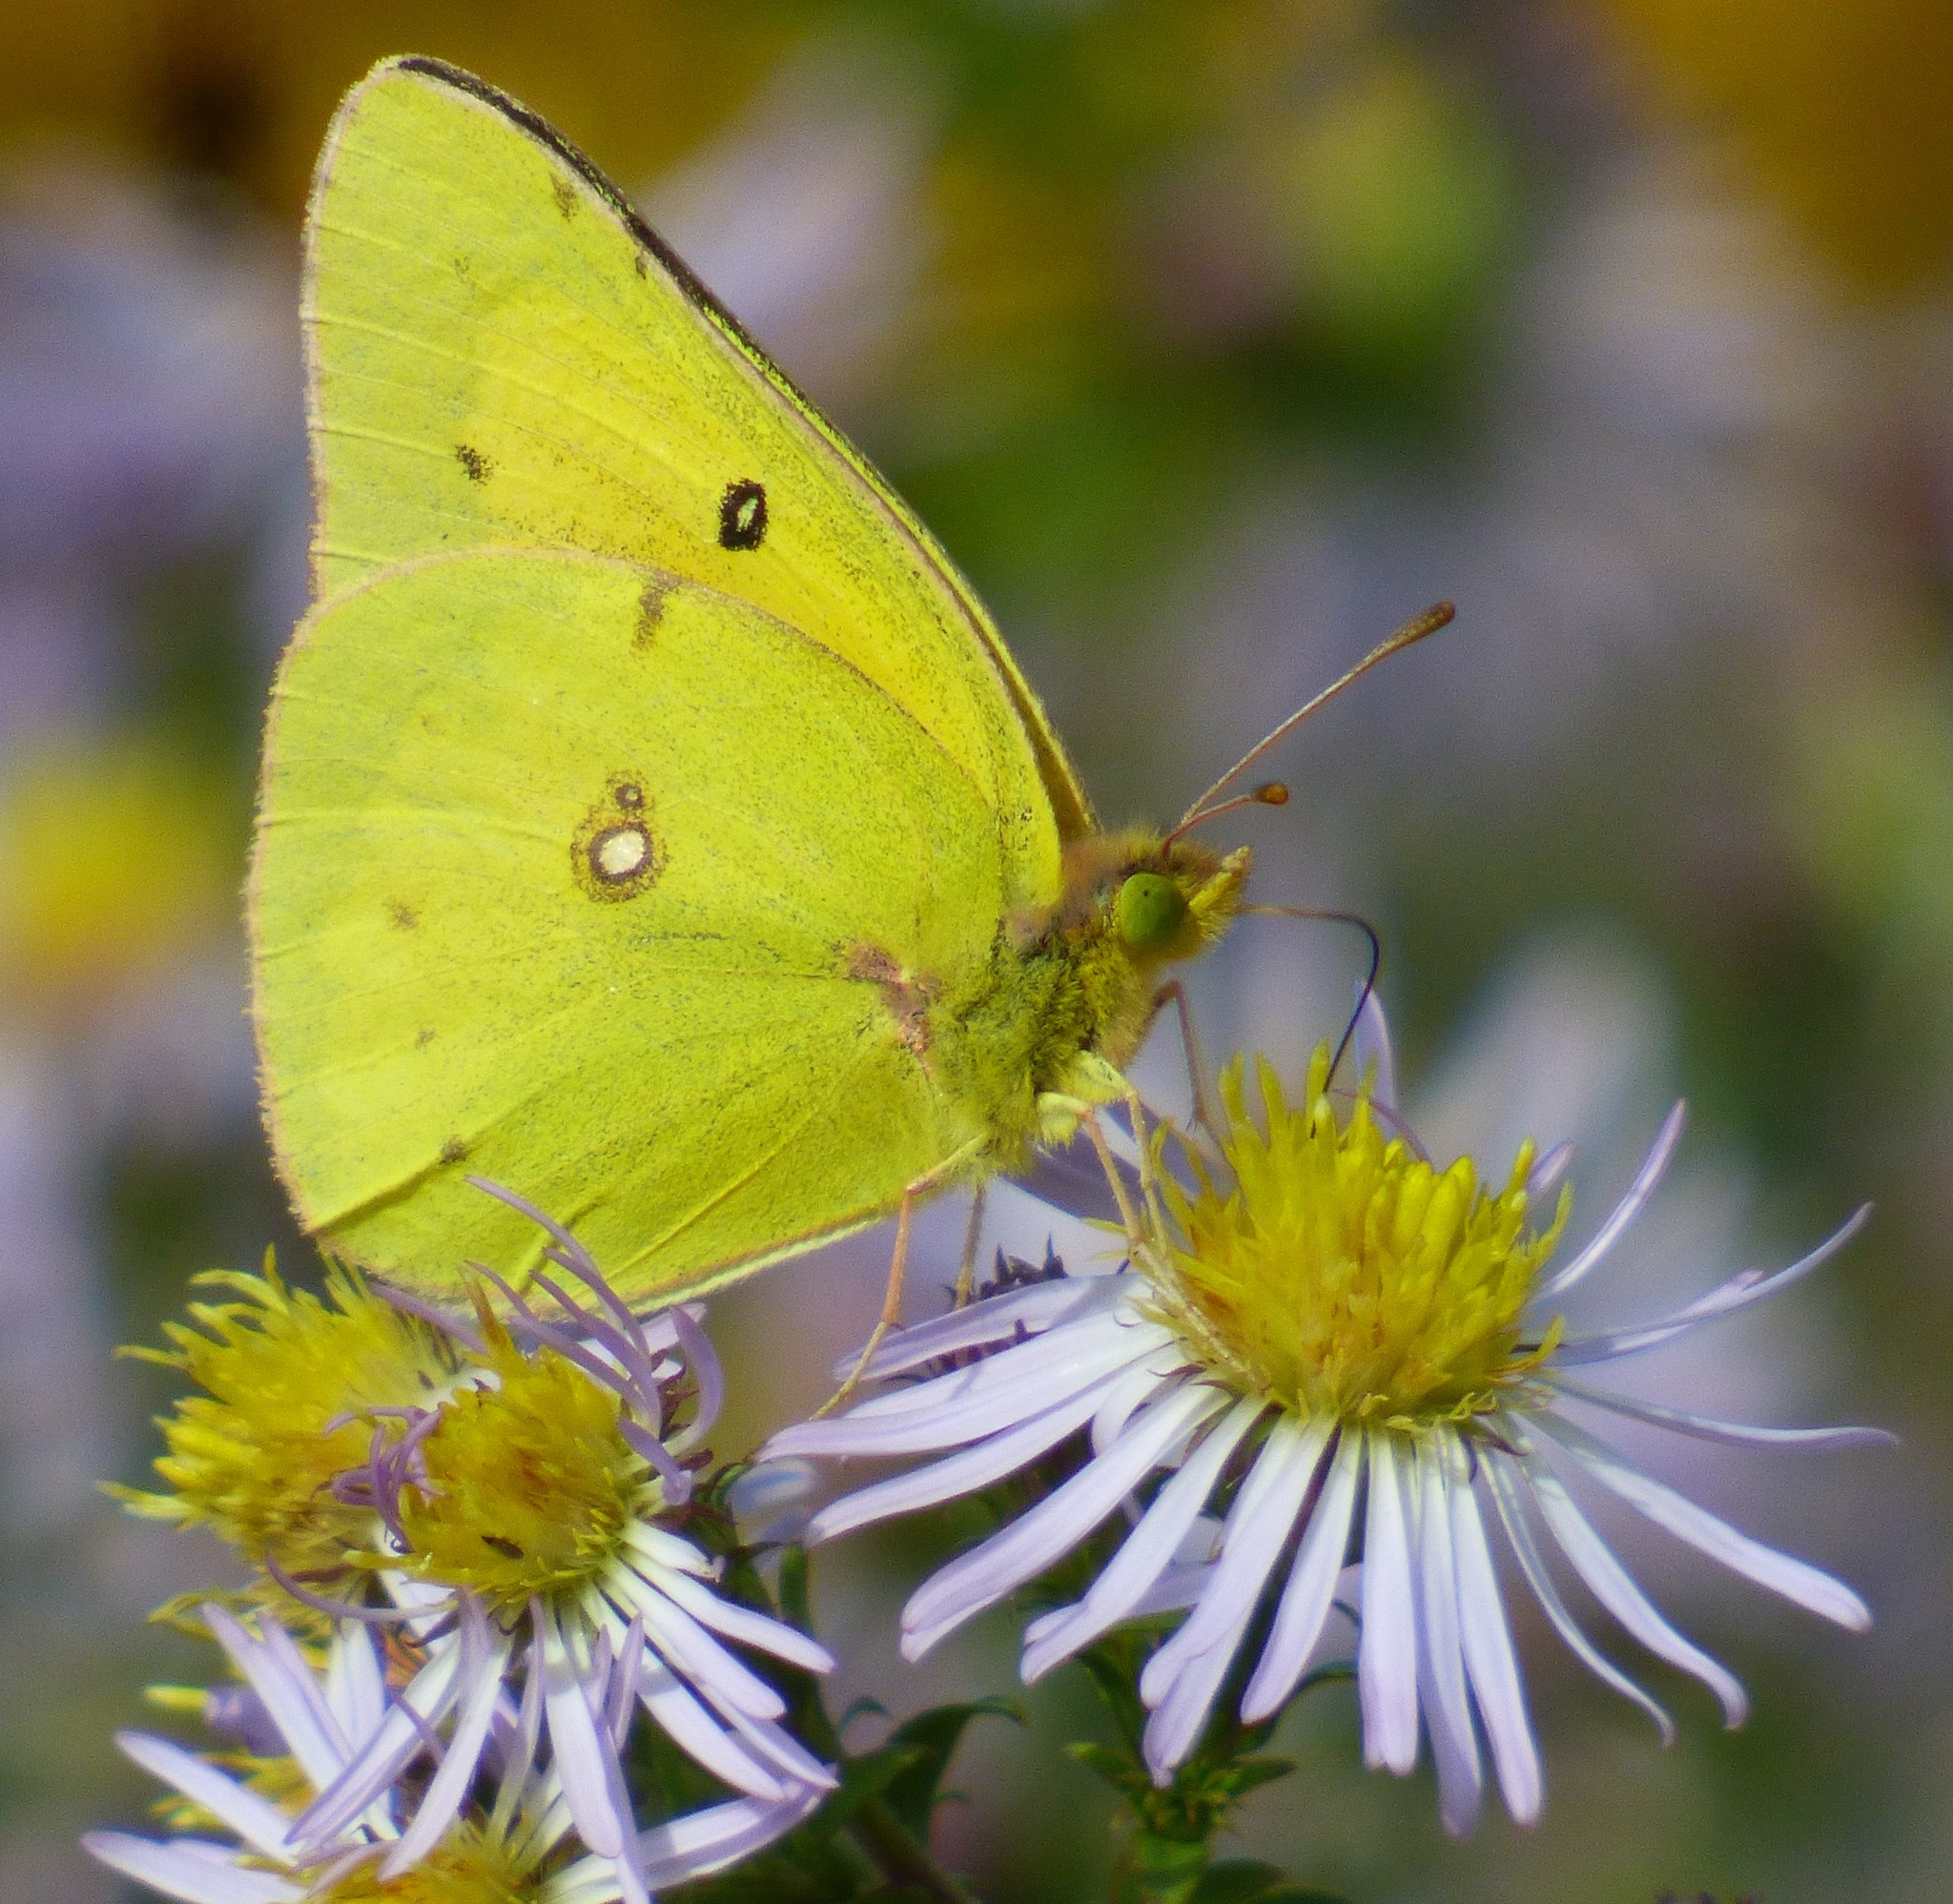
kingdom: Animalia
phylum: Arthropoda
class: Insecta
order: Lepidoptera
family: Pieridae
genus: Colias
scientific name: Colias eurytheme
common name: Alfalfa butterfly
